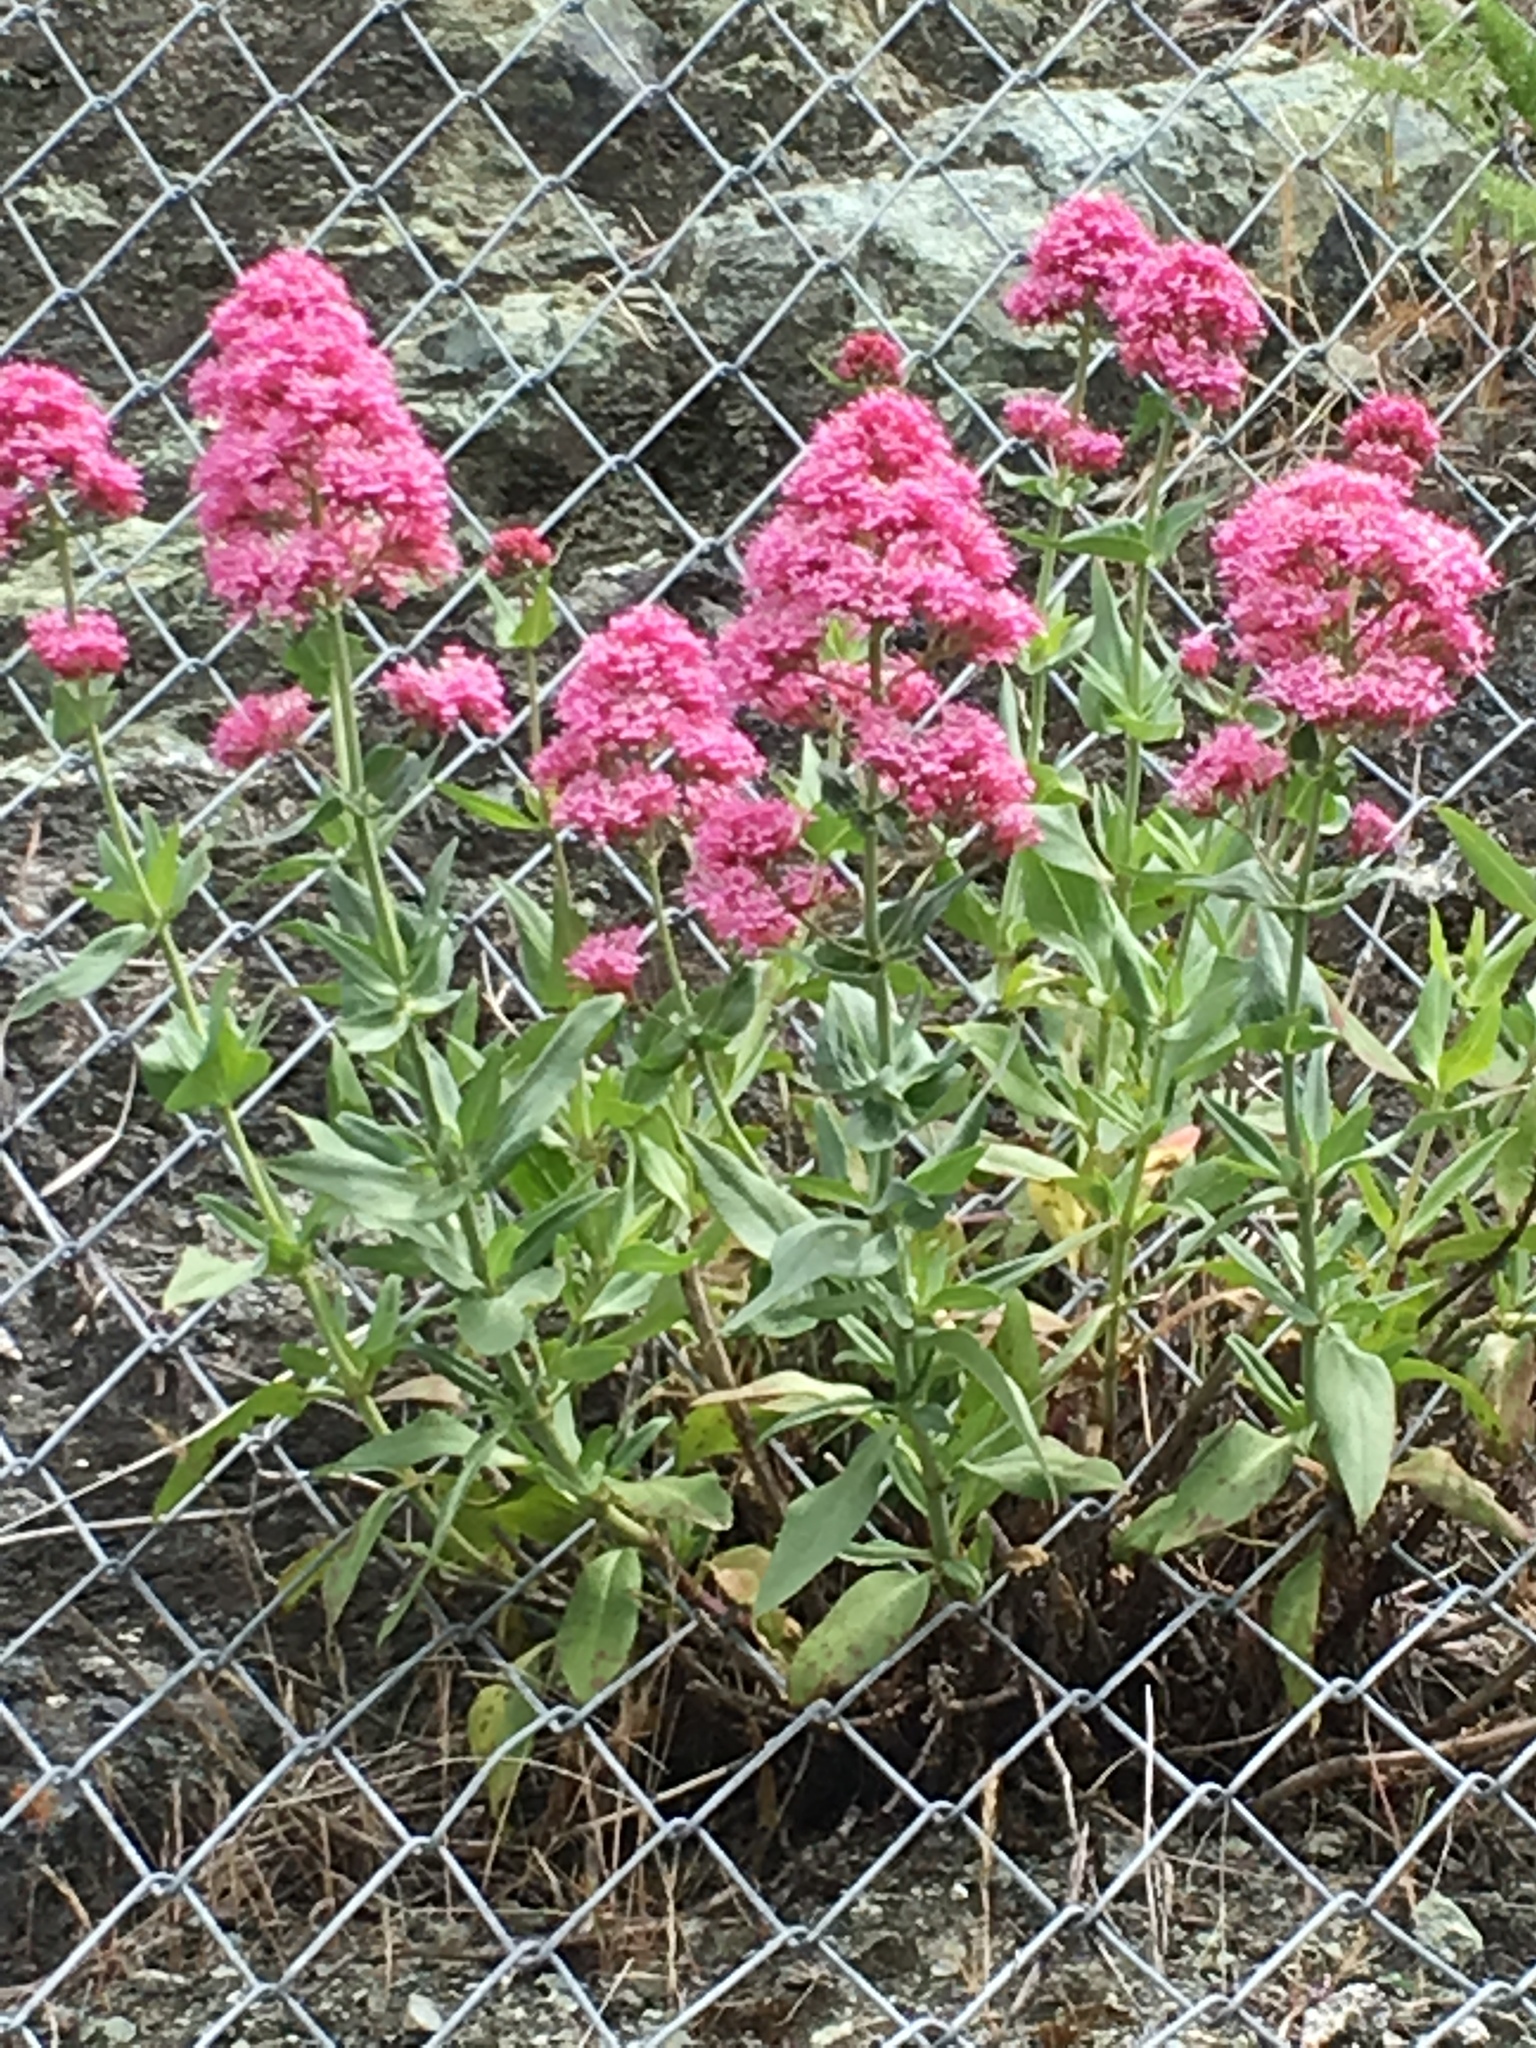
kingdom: Plantae
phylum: Tracheophyta
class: Magnoliopsida
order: Dipsacales
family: Caprifoliaceae
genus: Centranthus
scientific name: Centranthus ruber
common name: Red valerian
